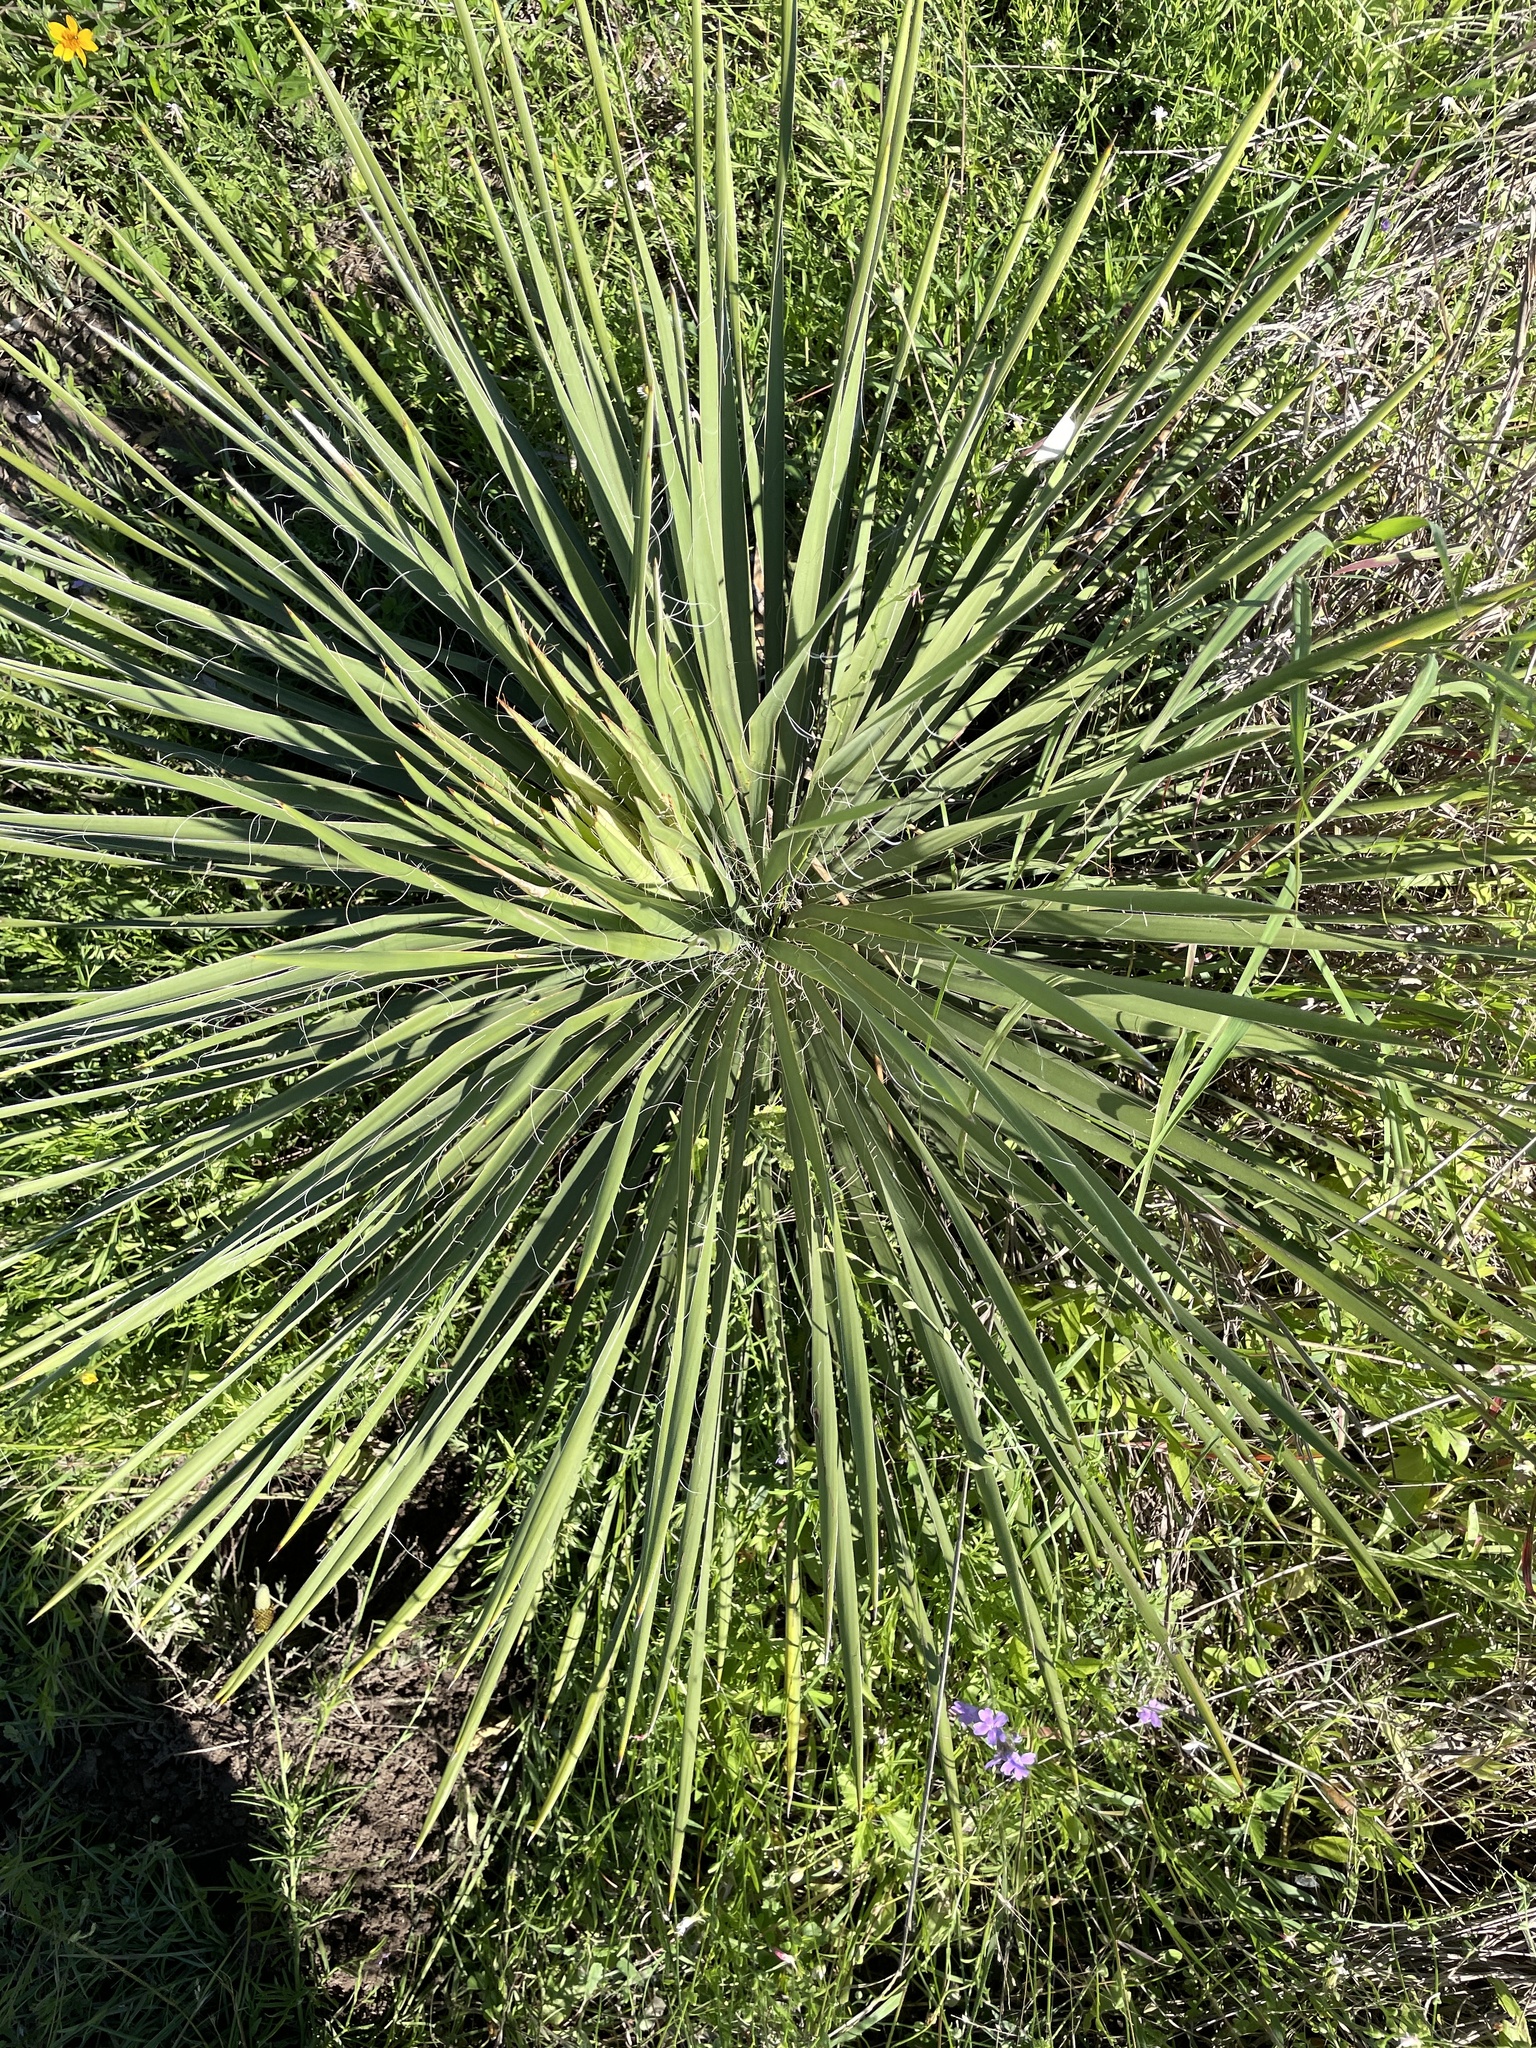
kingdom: Plantae
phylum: Tracheophyta
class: Liliopsida
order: Asparagales
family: Asparagaceae
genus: Yucca
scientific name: Yucca constricta
